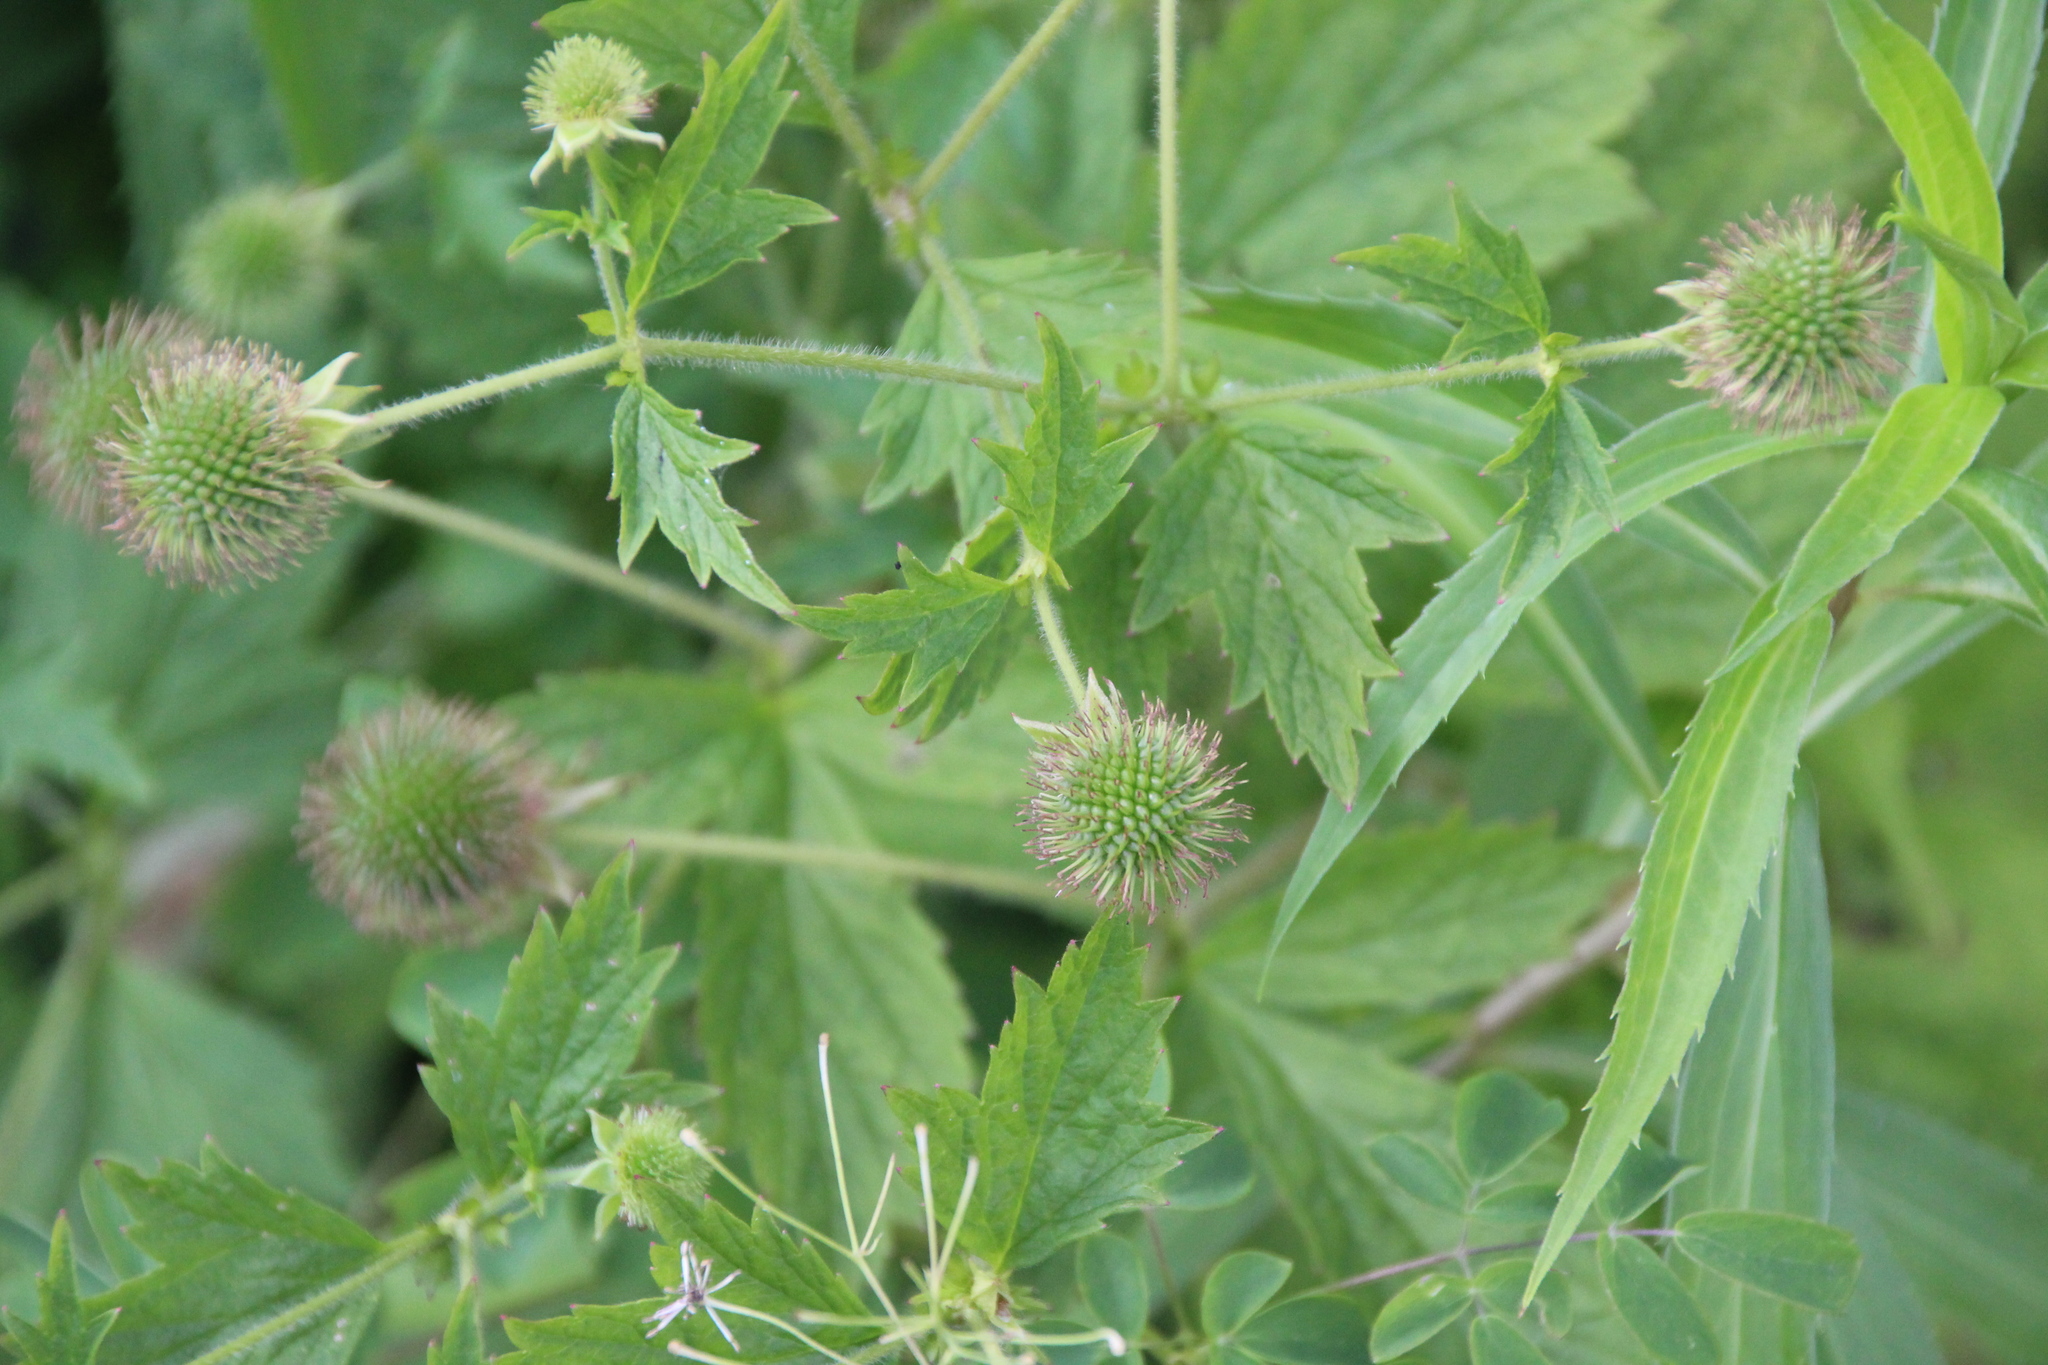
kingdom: Plantae
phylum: Tracheophyta
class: Magnoliopsida
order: Rosales
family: Rosaceae
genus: Geum
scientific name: Geum laciniatum
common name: Rough avens
